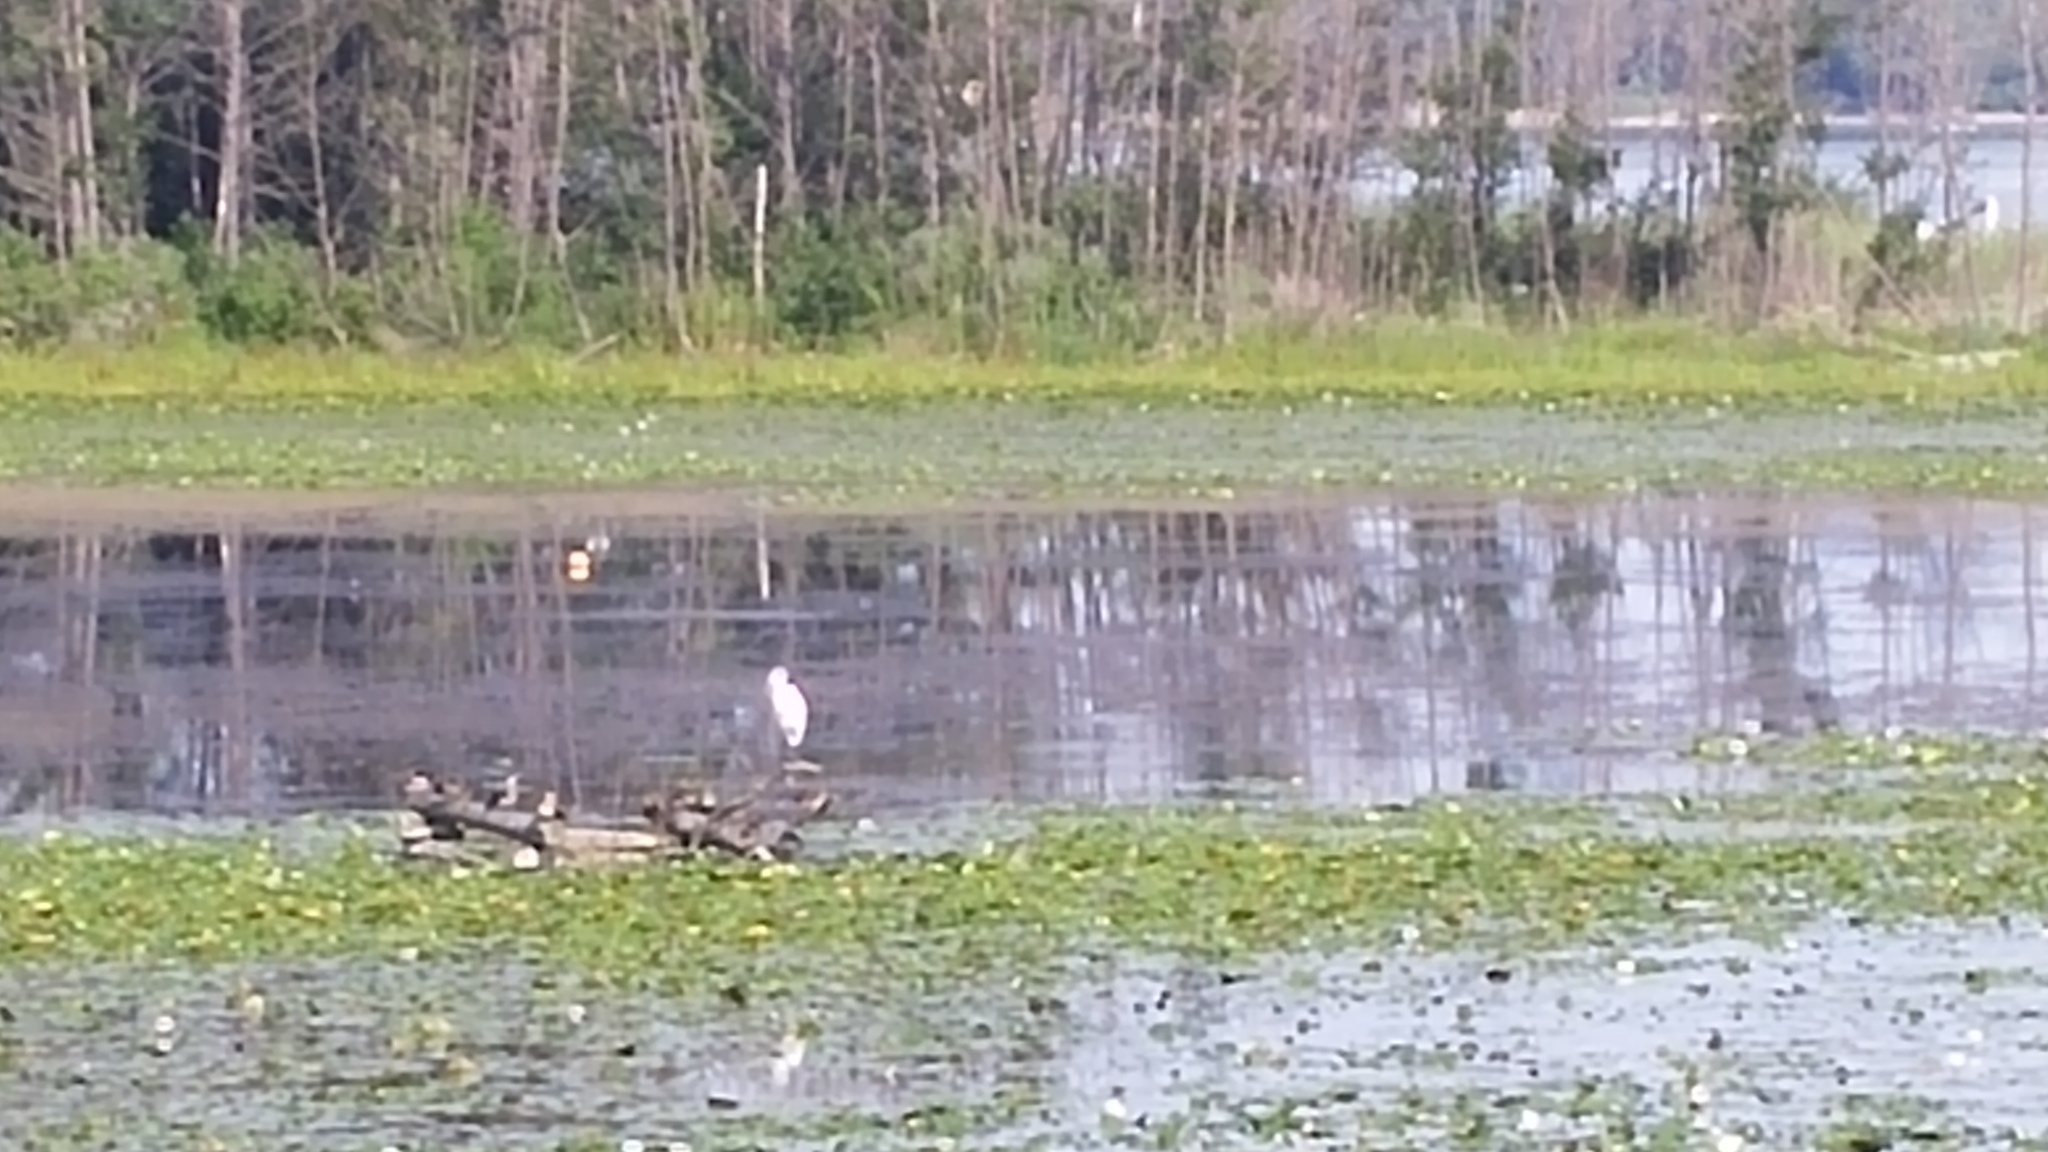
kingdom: Animalia
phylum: Chordata
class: Aves
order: Pelecaniformes
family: Ardeidae
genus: Ardea
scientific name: Ardea alba
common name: Great egret
